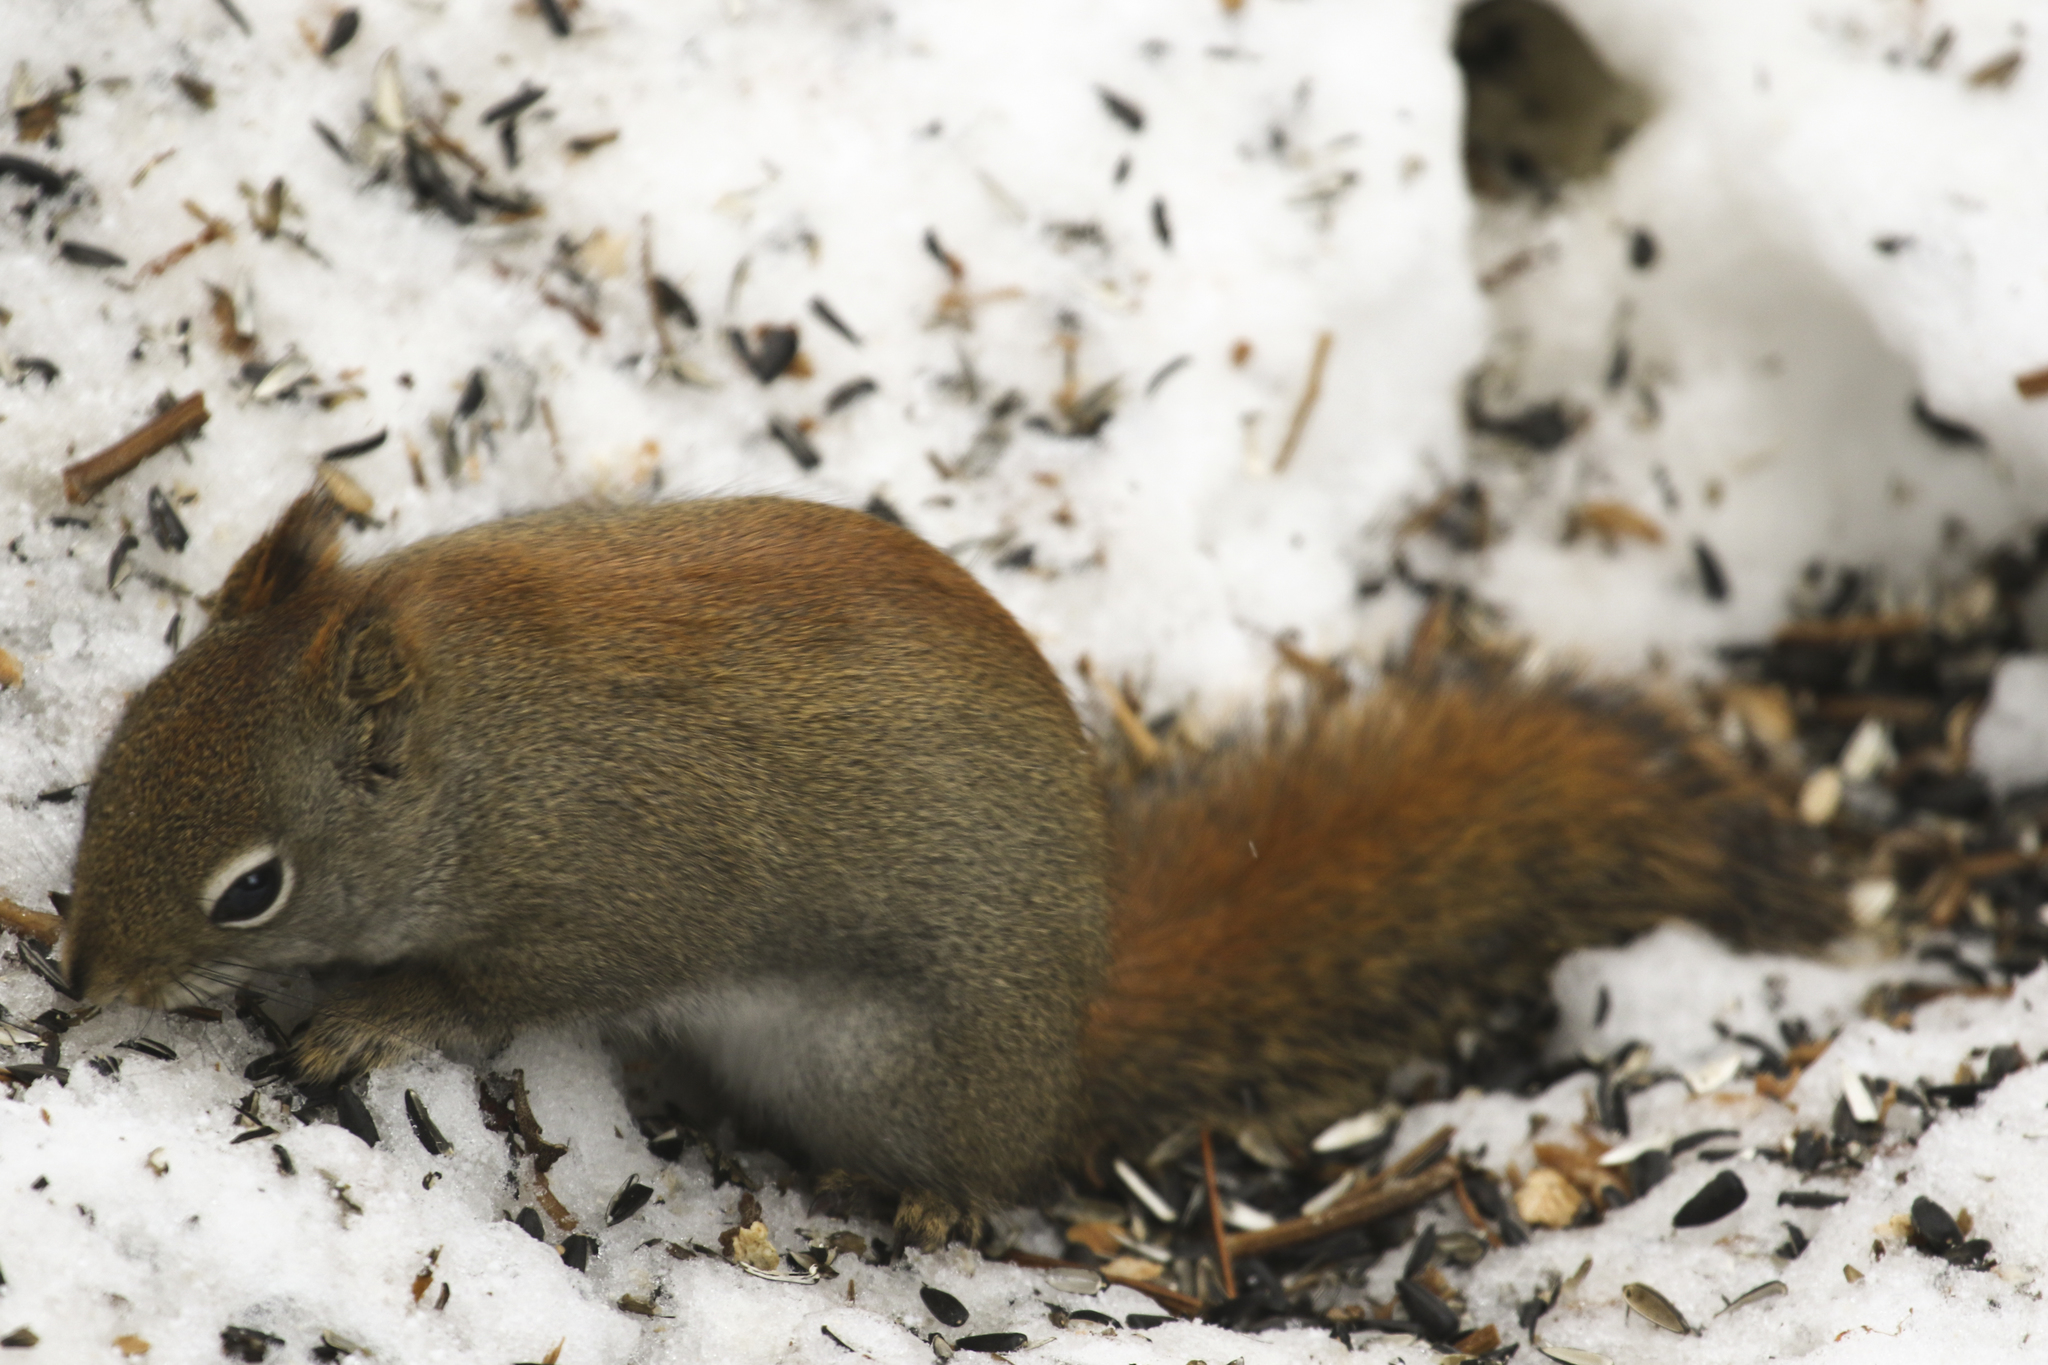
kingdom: Animalia
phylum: Chordata
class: Mammalia
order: Rodentia
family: Sciuridae
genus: Tamiasciurus
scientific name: Tamiasciurus hudsonicus
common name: Red squirrel
